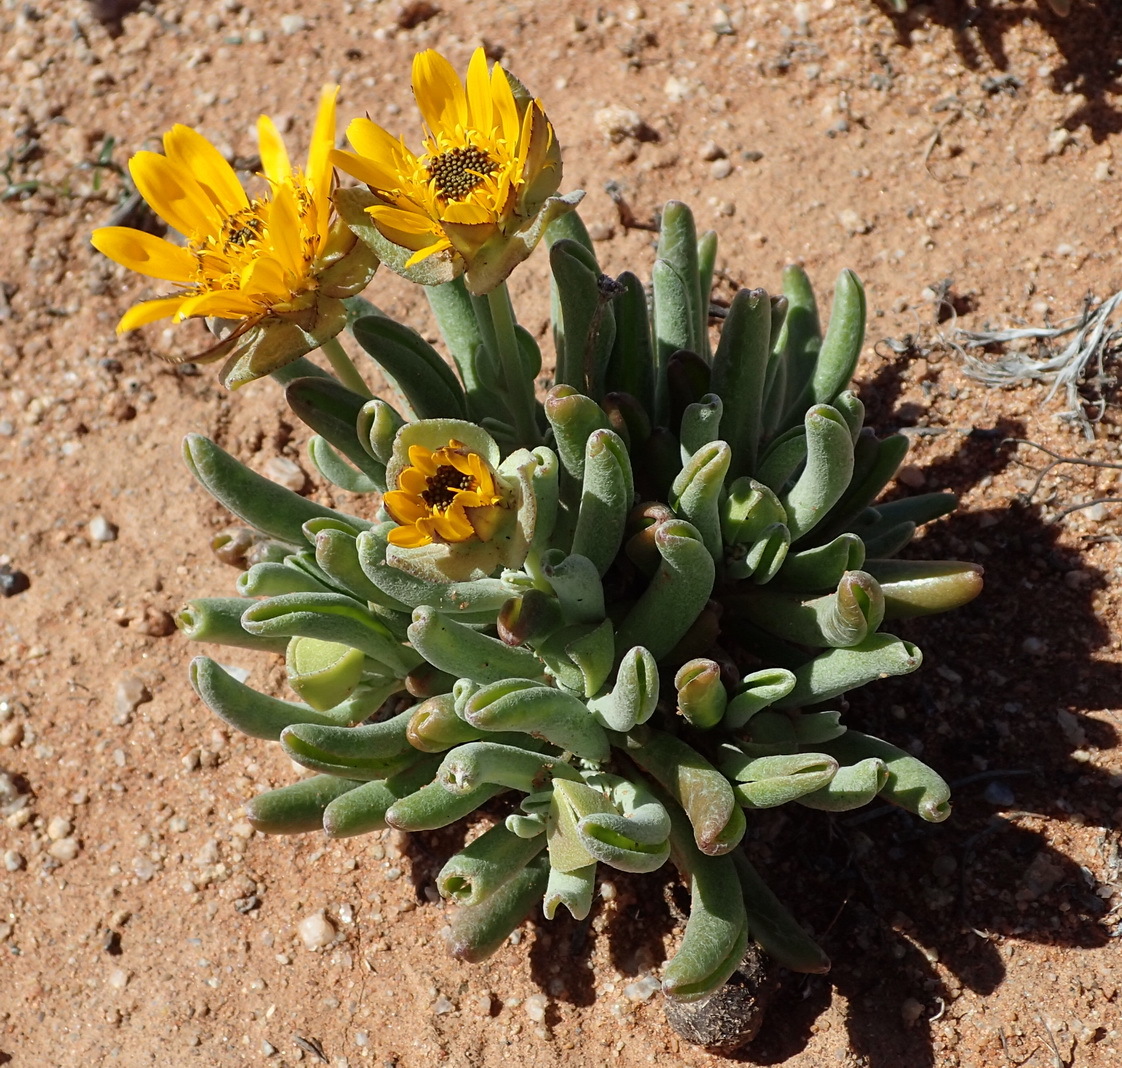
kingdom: Plantae
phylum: Tracheophyta
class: Magnoliopsida
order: Asterales
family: Asteraceae
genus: Didelta
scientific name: Didelta carnosa
